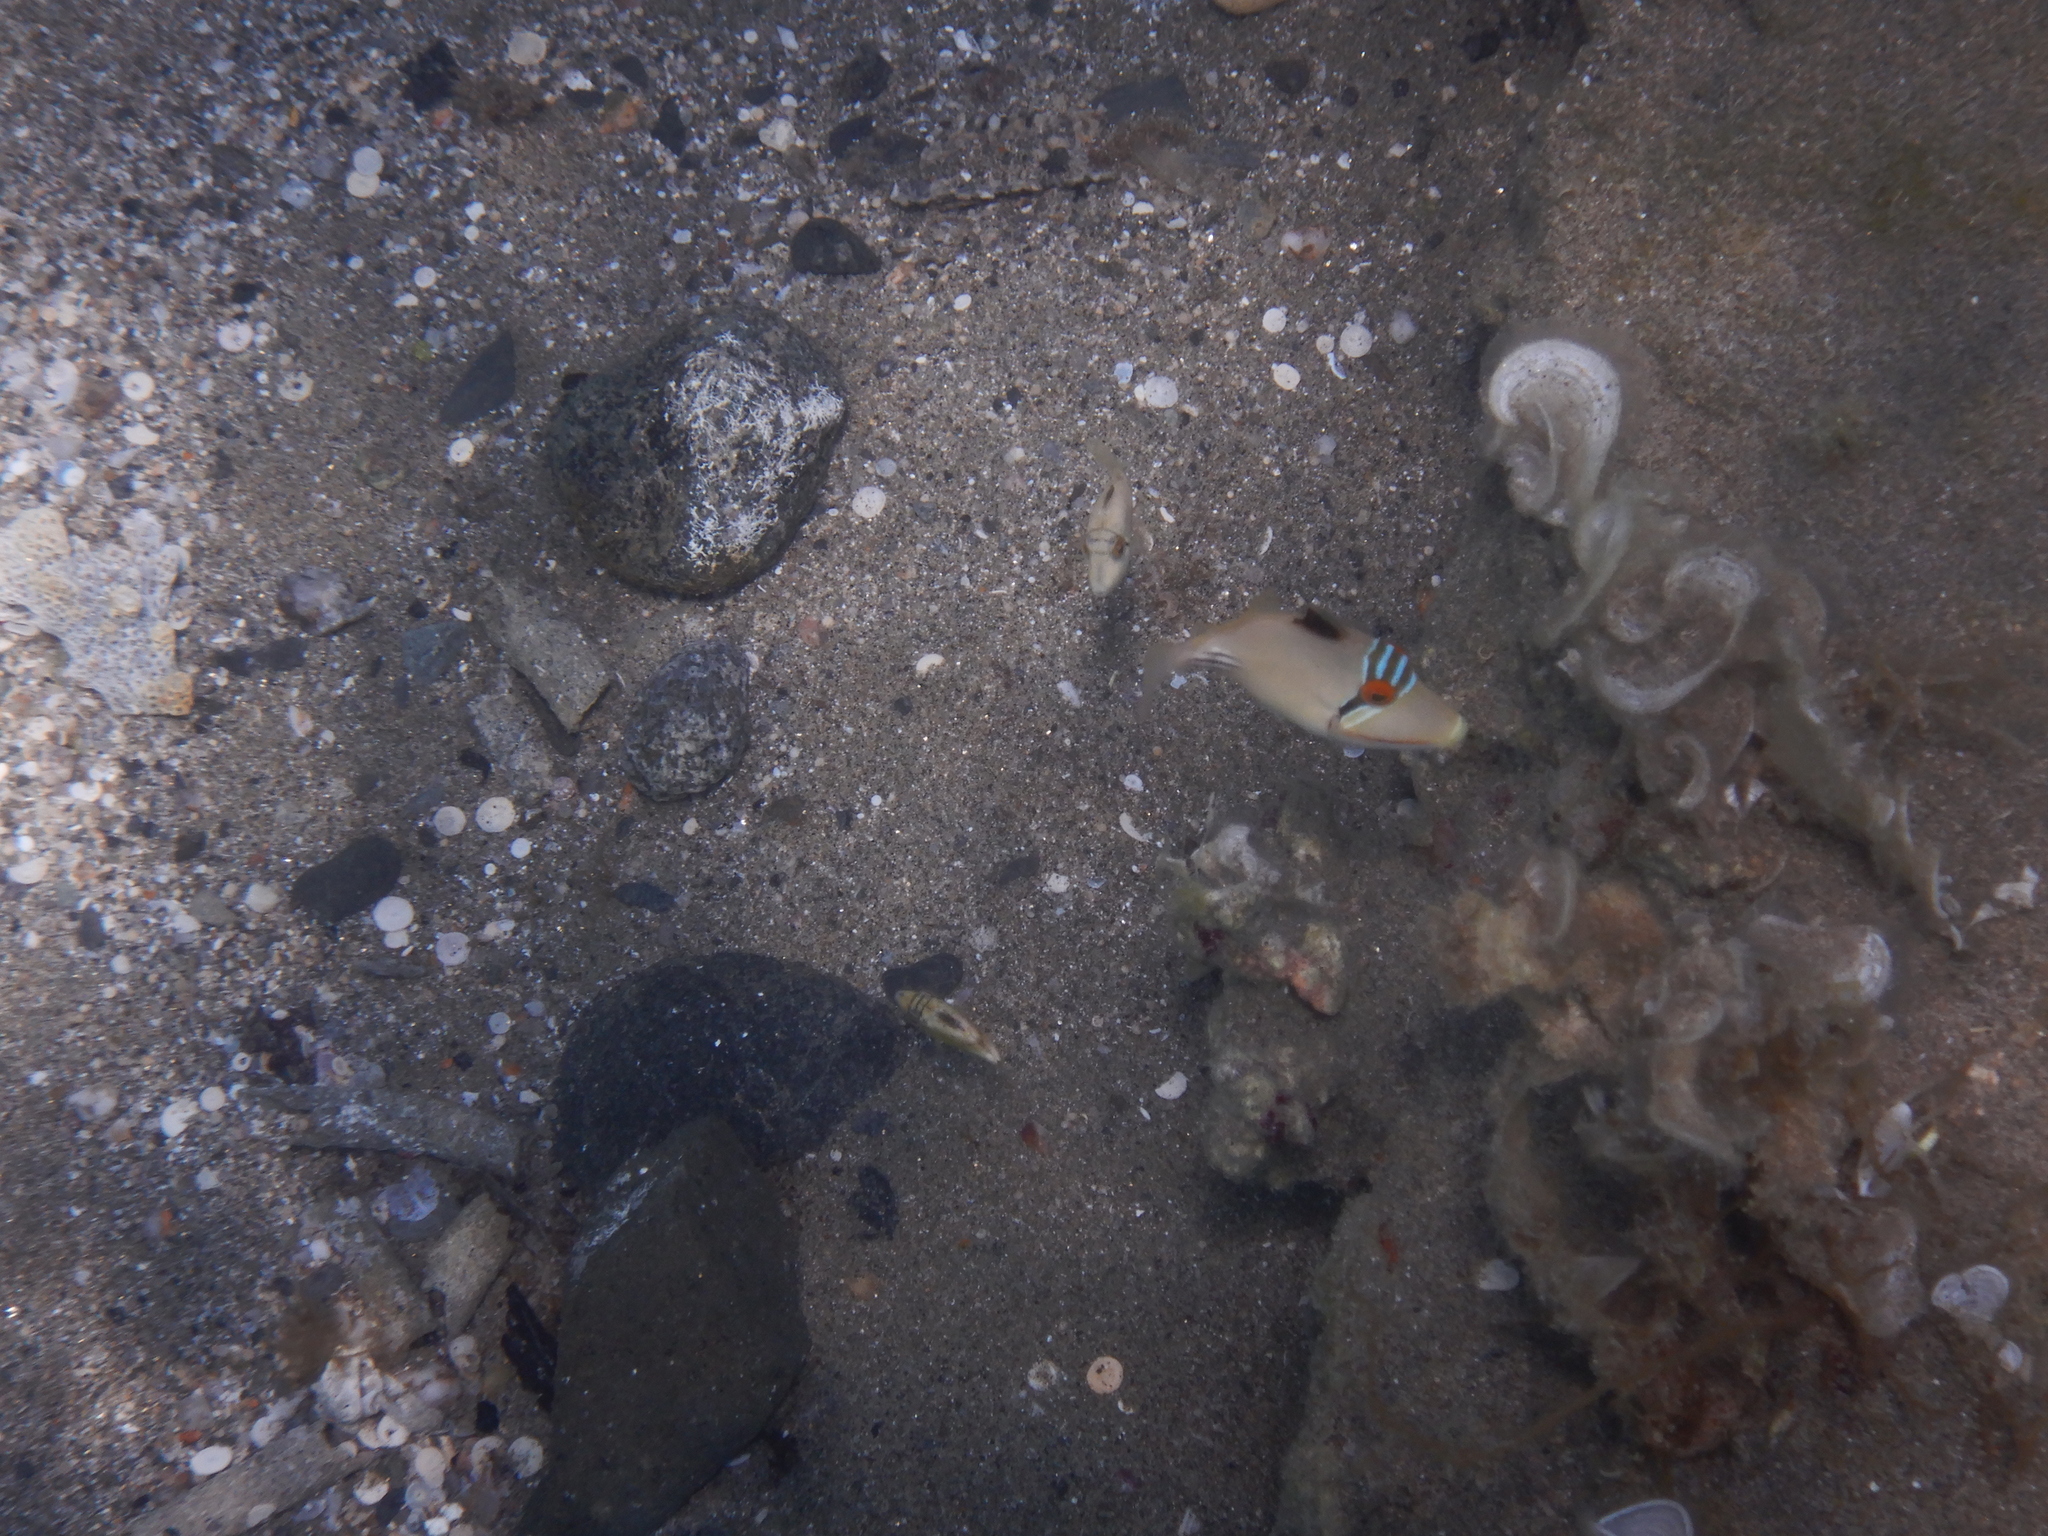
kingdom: Animalia
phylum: Chordata
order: Tetraodontiformes
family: Balistidae
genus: Rhinecanthus
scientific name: Rhinecanthus assasi
